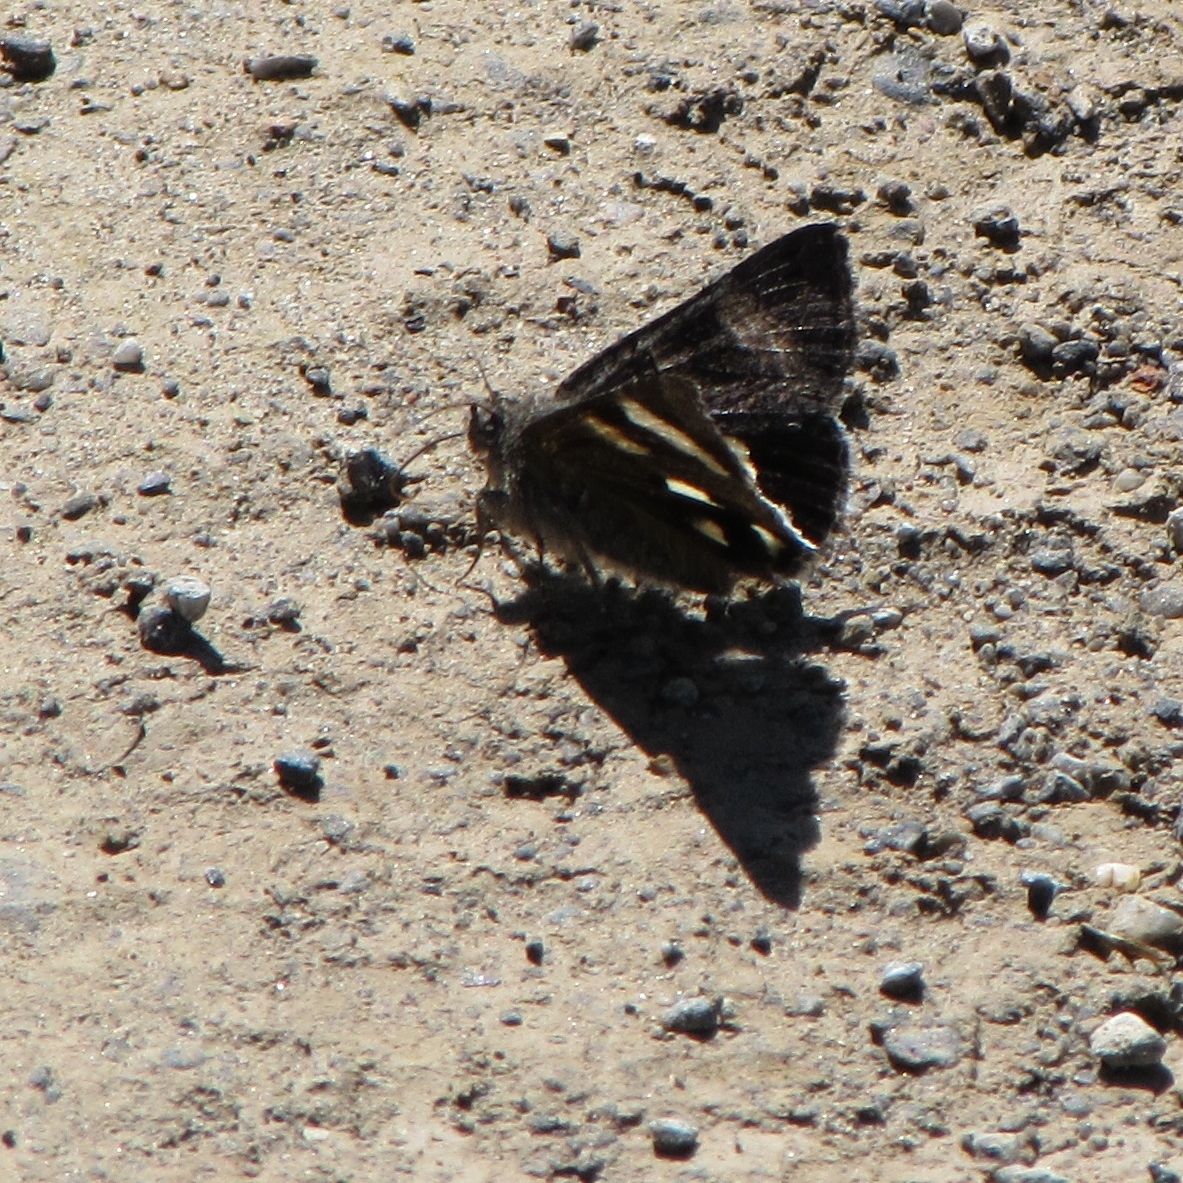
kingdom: Animalia
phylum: Arthropoda
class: Insecta
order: Lepidoptera
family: Erebidae
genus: Litocala
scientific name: Litocala sexsignata
